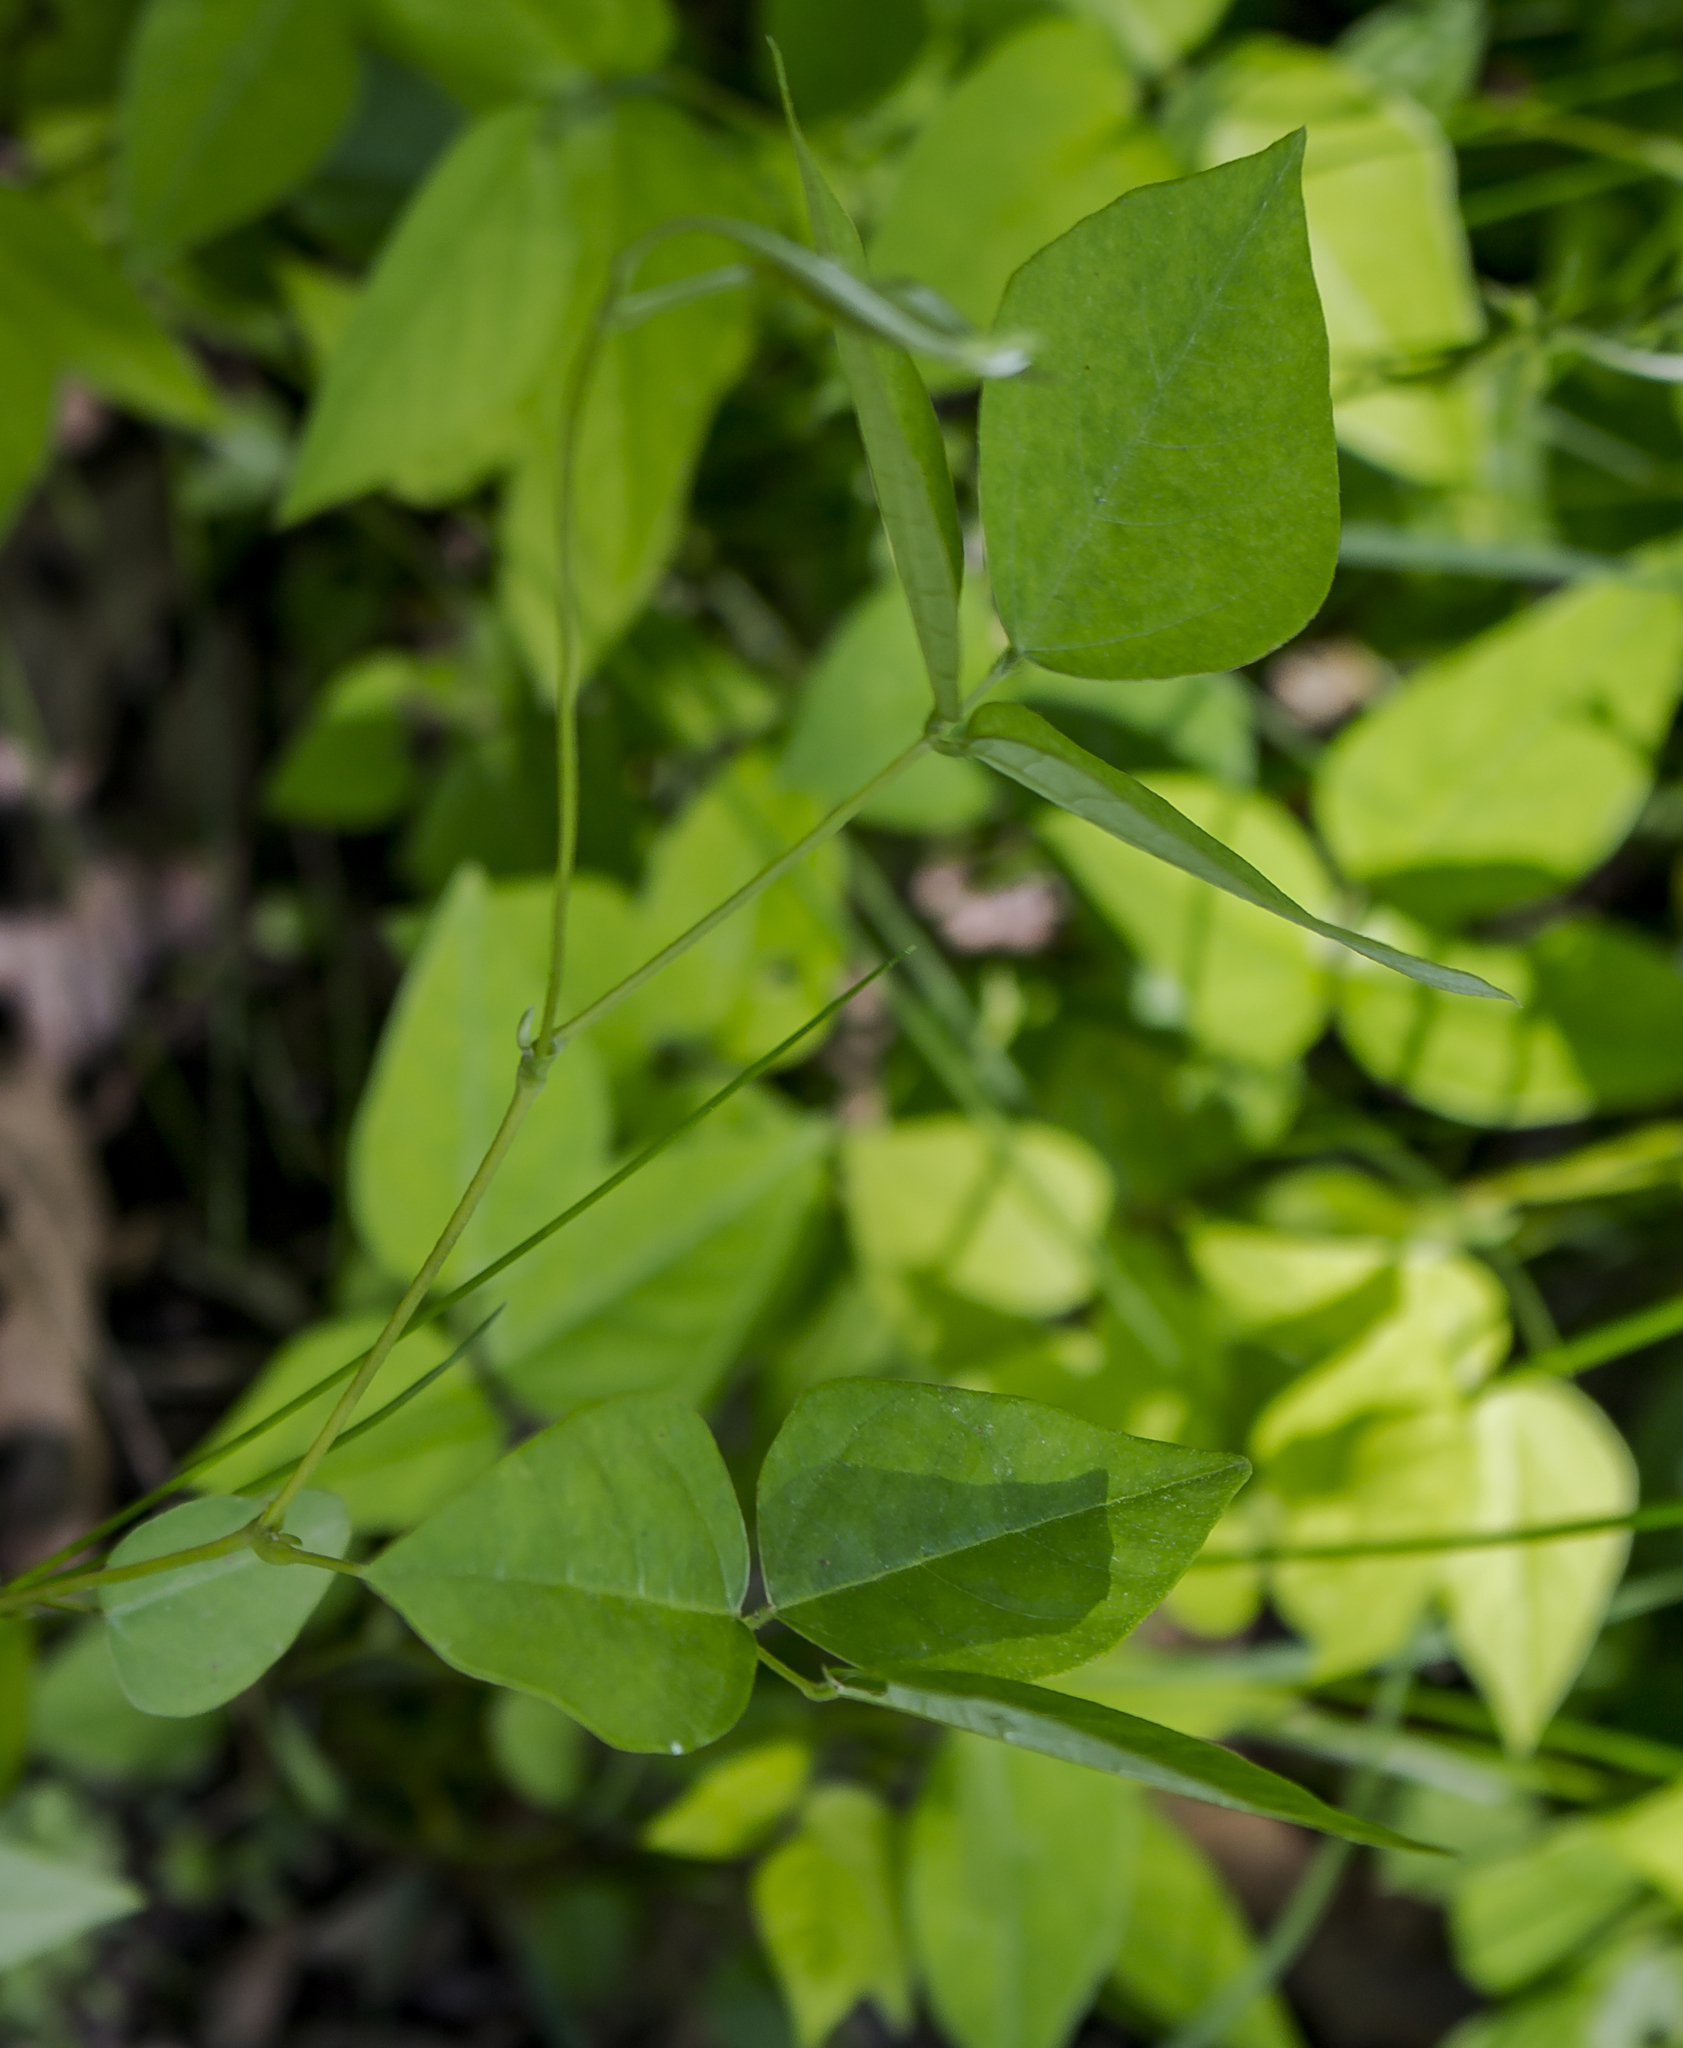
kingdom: Plantae
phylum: Tracheophyta
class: Magnoliopsida
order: Fabales
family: Fabaceae
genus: Amphicarpaea
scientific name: Amphicarpaea bracteata
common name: American hog peanut
